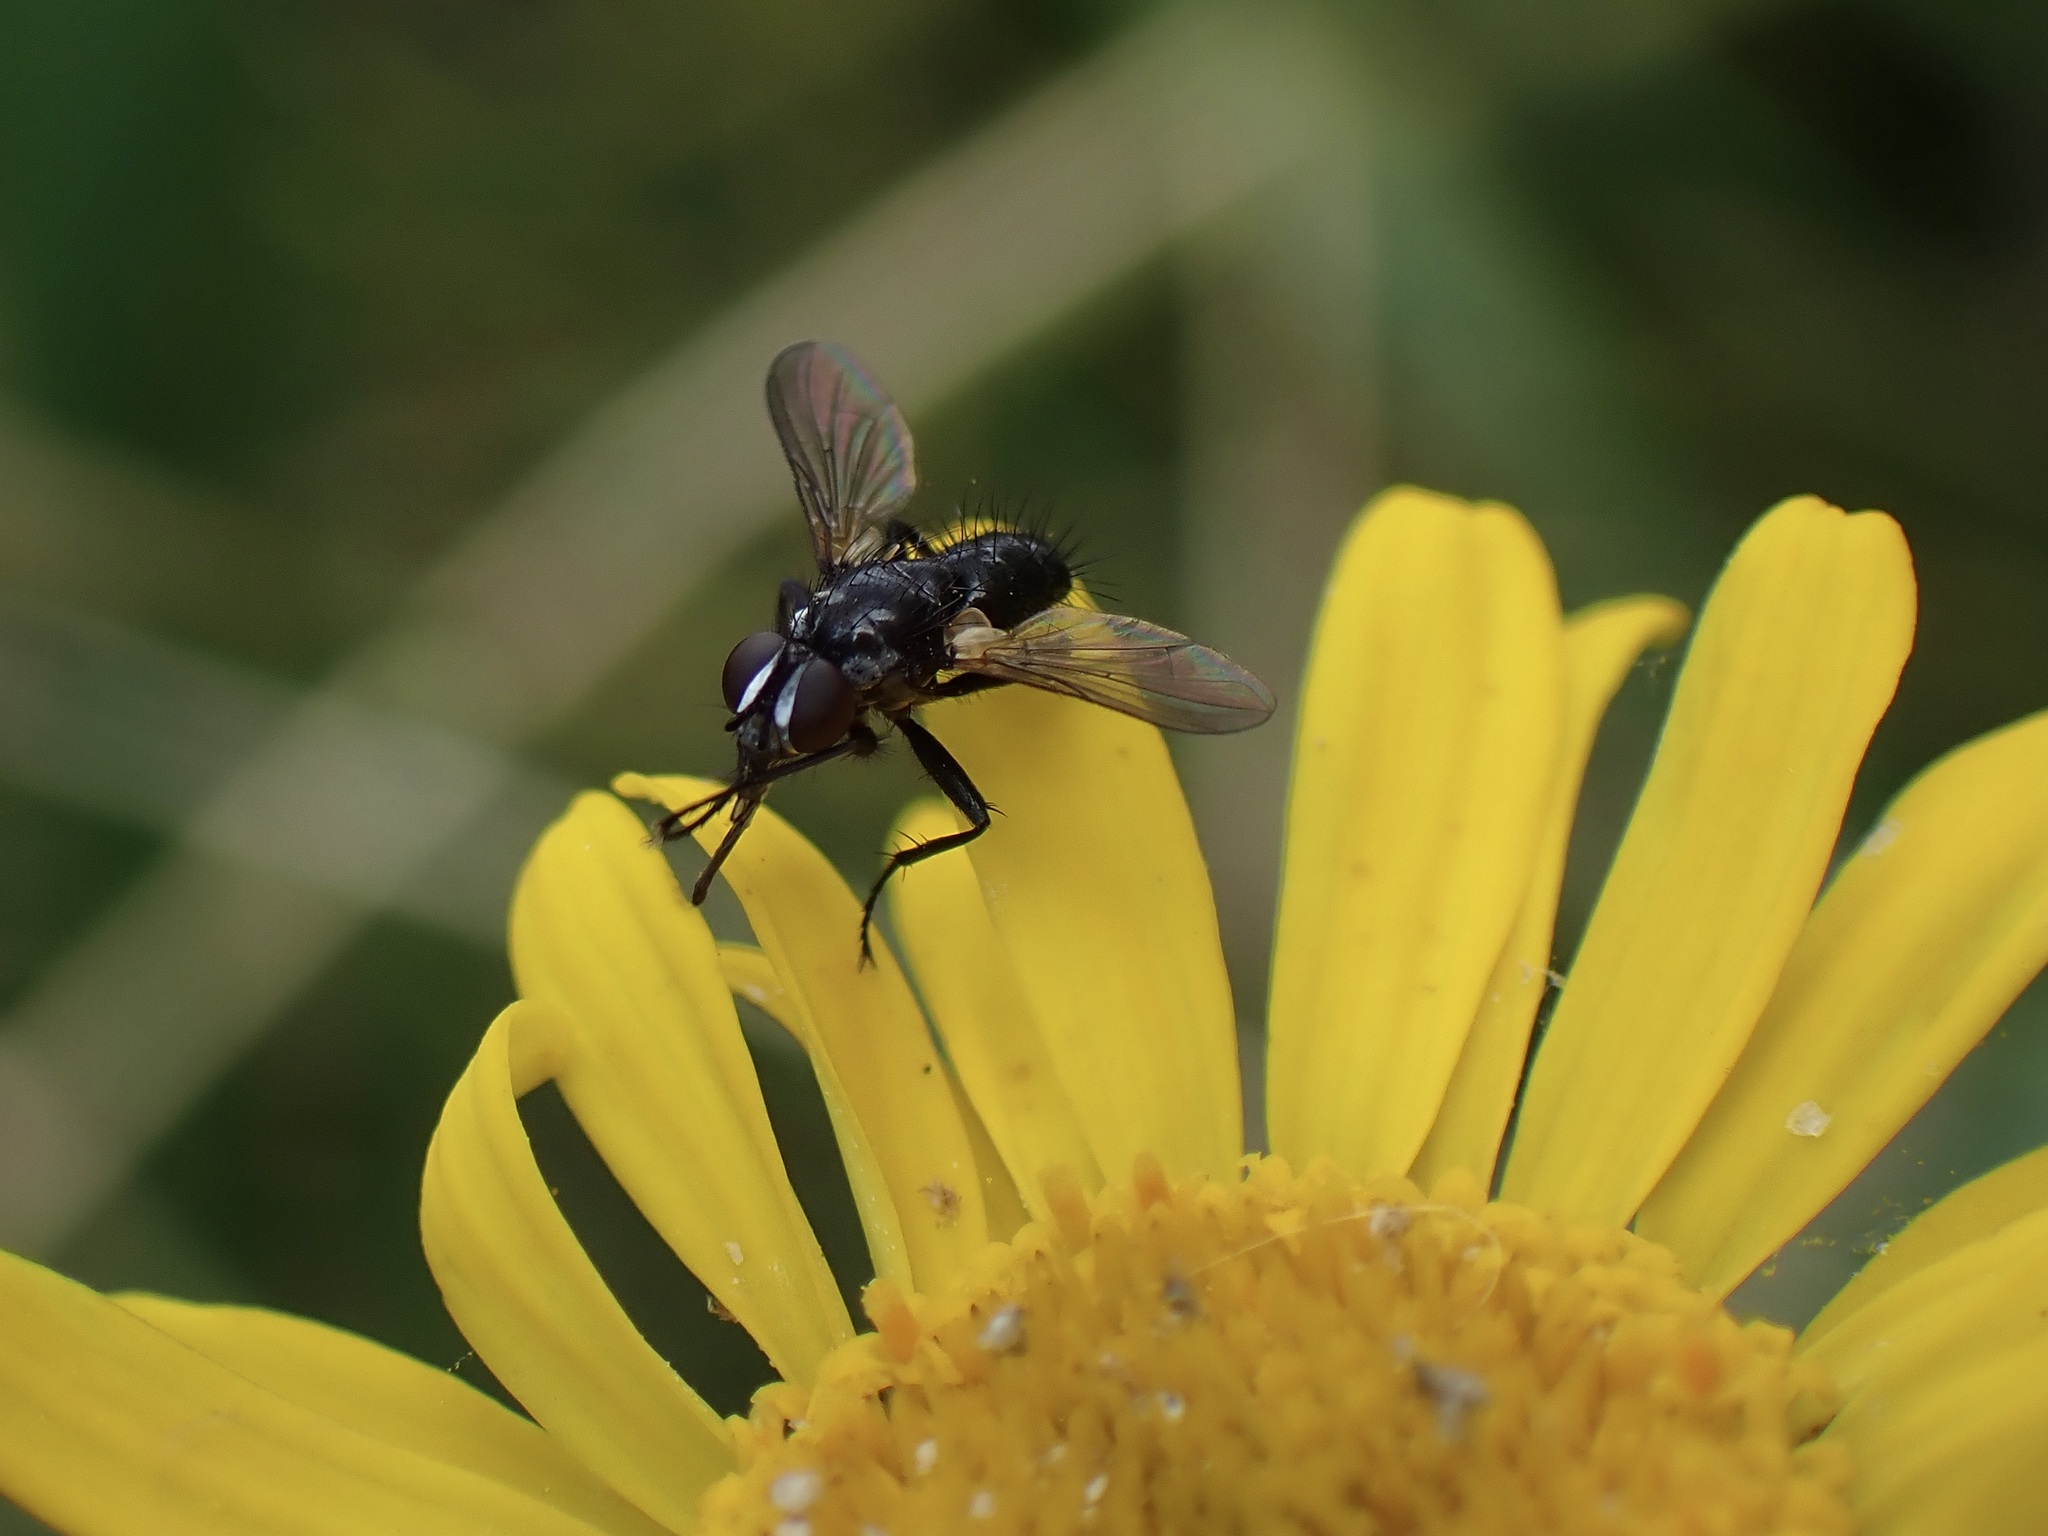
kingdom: Animalia
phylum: Arthropoda
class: Insecta
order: Diptera
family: Tachinidae
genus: Phania
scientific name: Phania funesta
